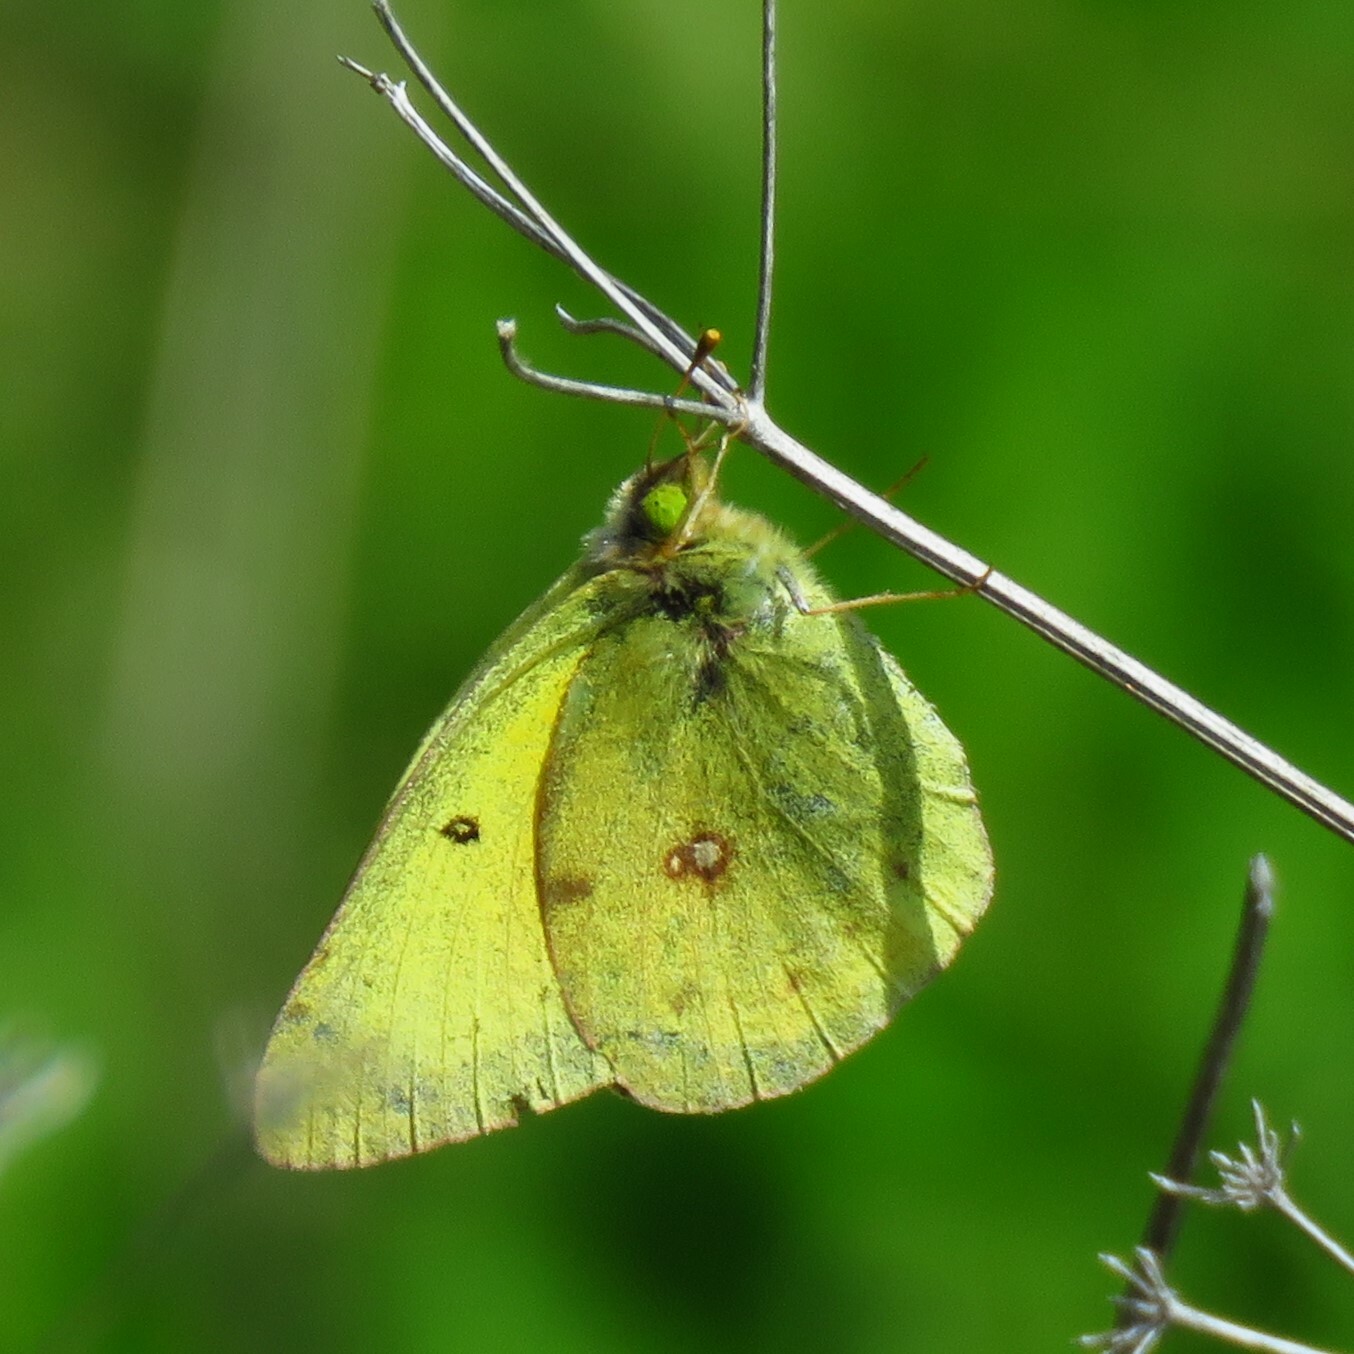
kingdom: Animalia
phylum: Arthropoda
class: Insecta
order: Lepidoptera
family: Pieridae
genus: Colias
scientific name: Colias eurytheme
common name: Alfalfa butterfly
